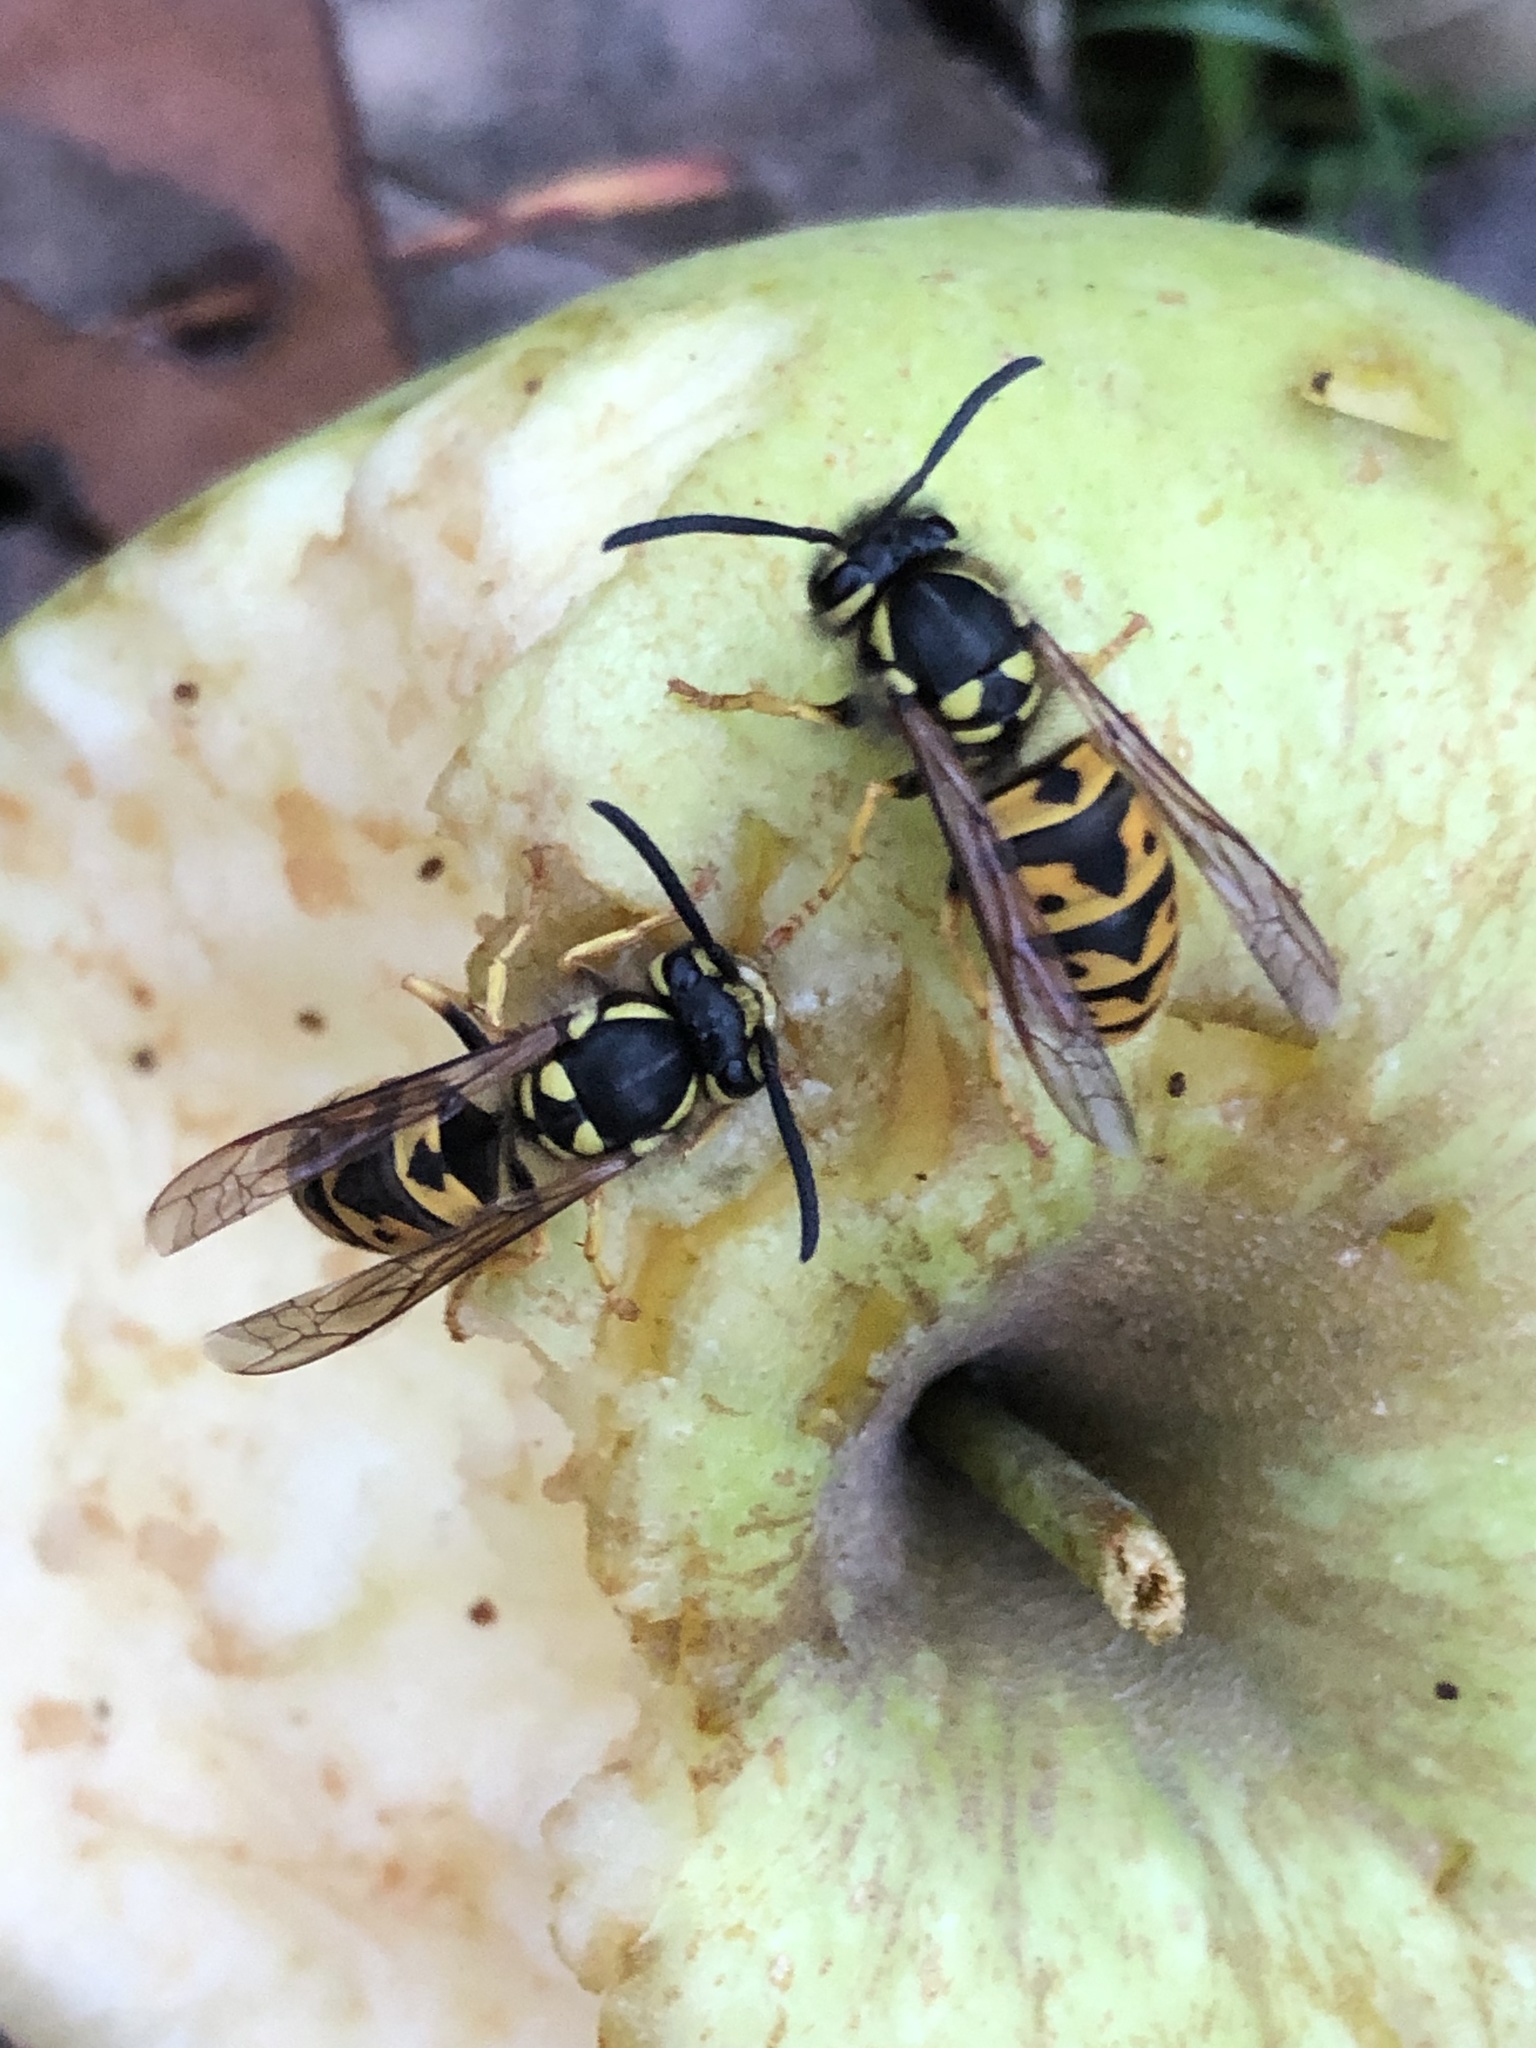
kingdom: Animalia
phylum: Arthropoda
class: Insecta
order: Hymenoptera
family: Vespidae
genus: Vespula
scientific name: Vespula germanica
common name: German wasp
